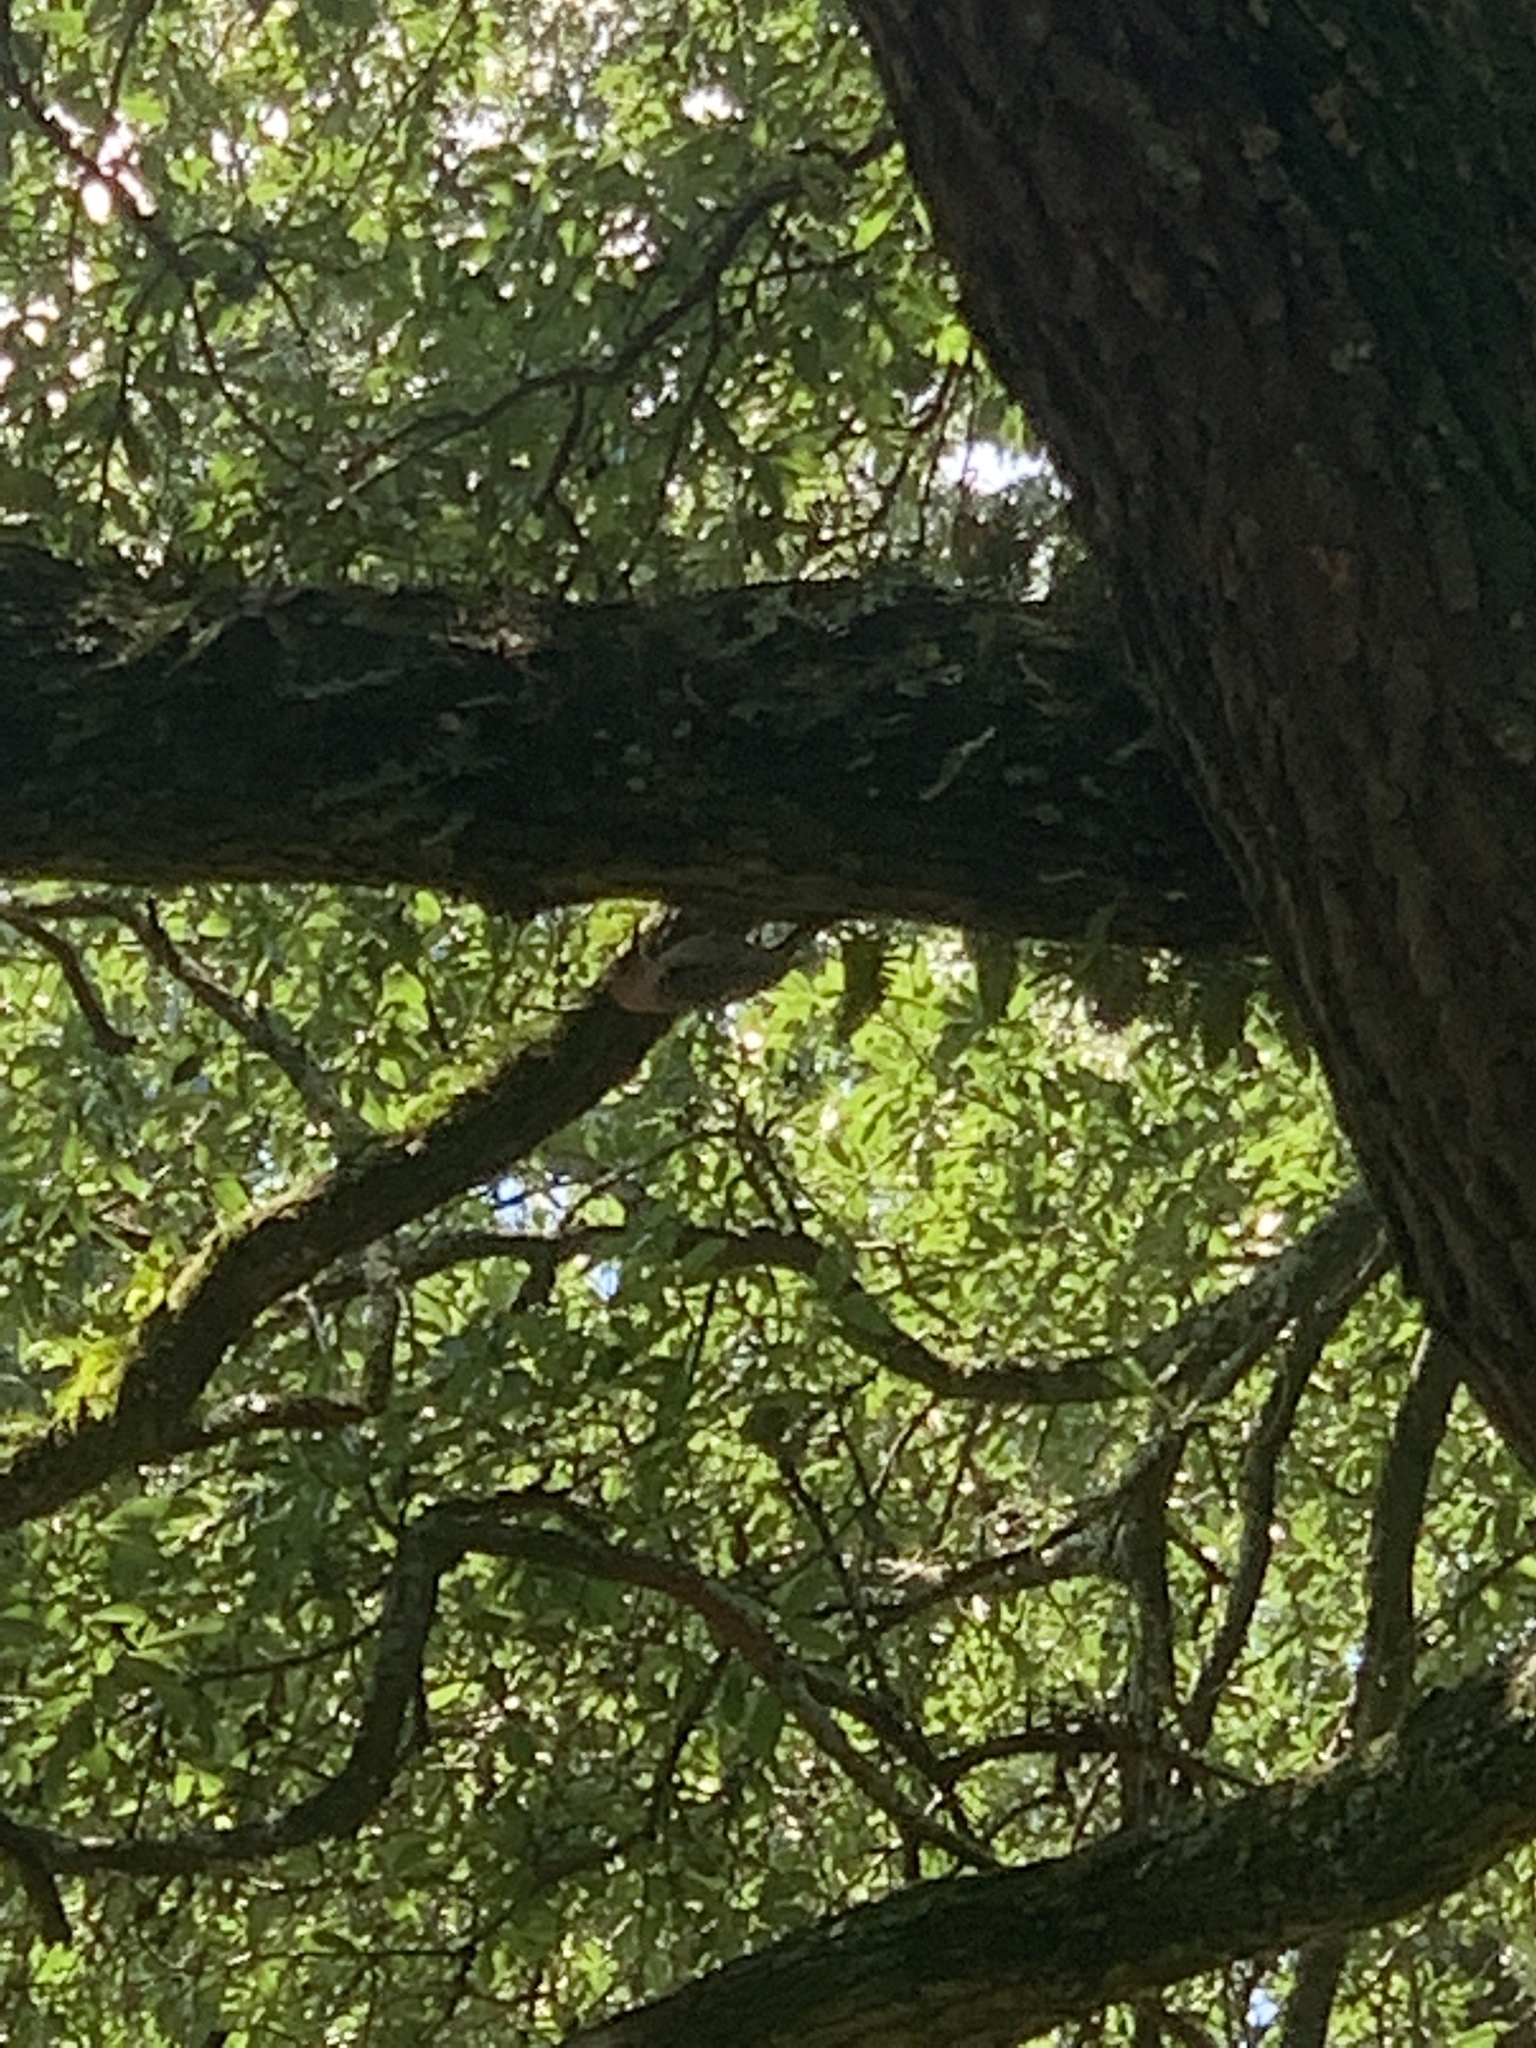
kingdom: Animalia
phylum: Chordata
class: Aves
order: Piciformes
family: Picidae
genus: Melanerpes
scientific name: Melanerpes carolinus
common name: Red-bellied woodpecker
